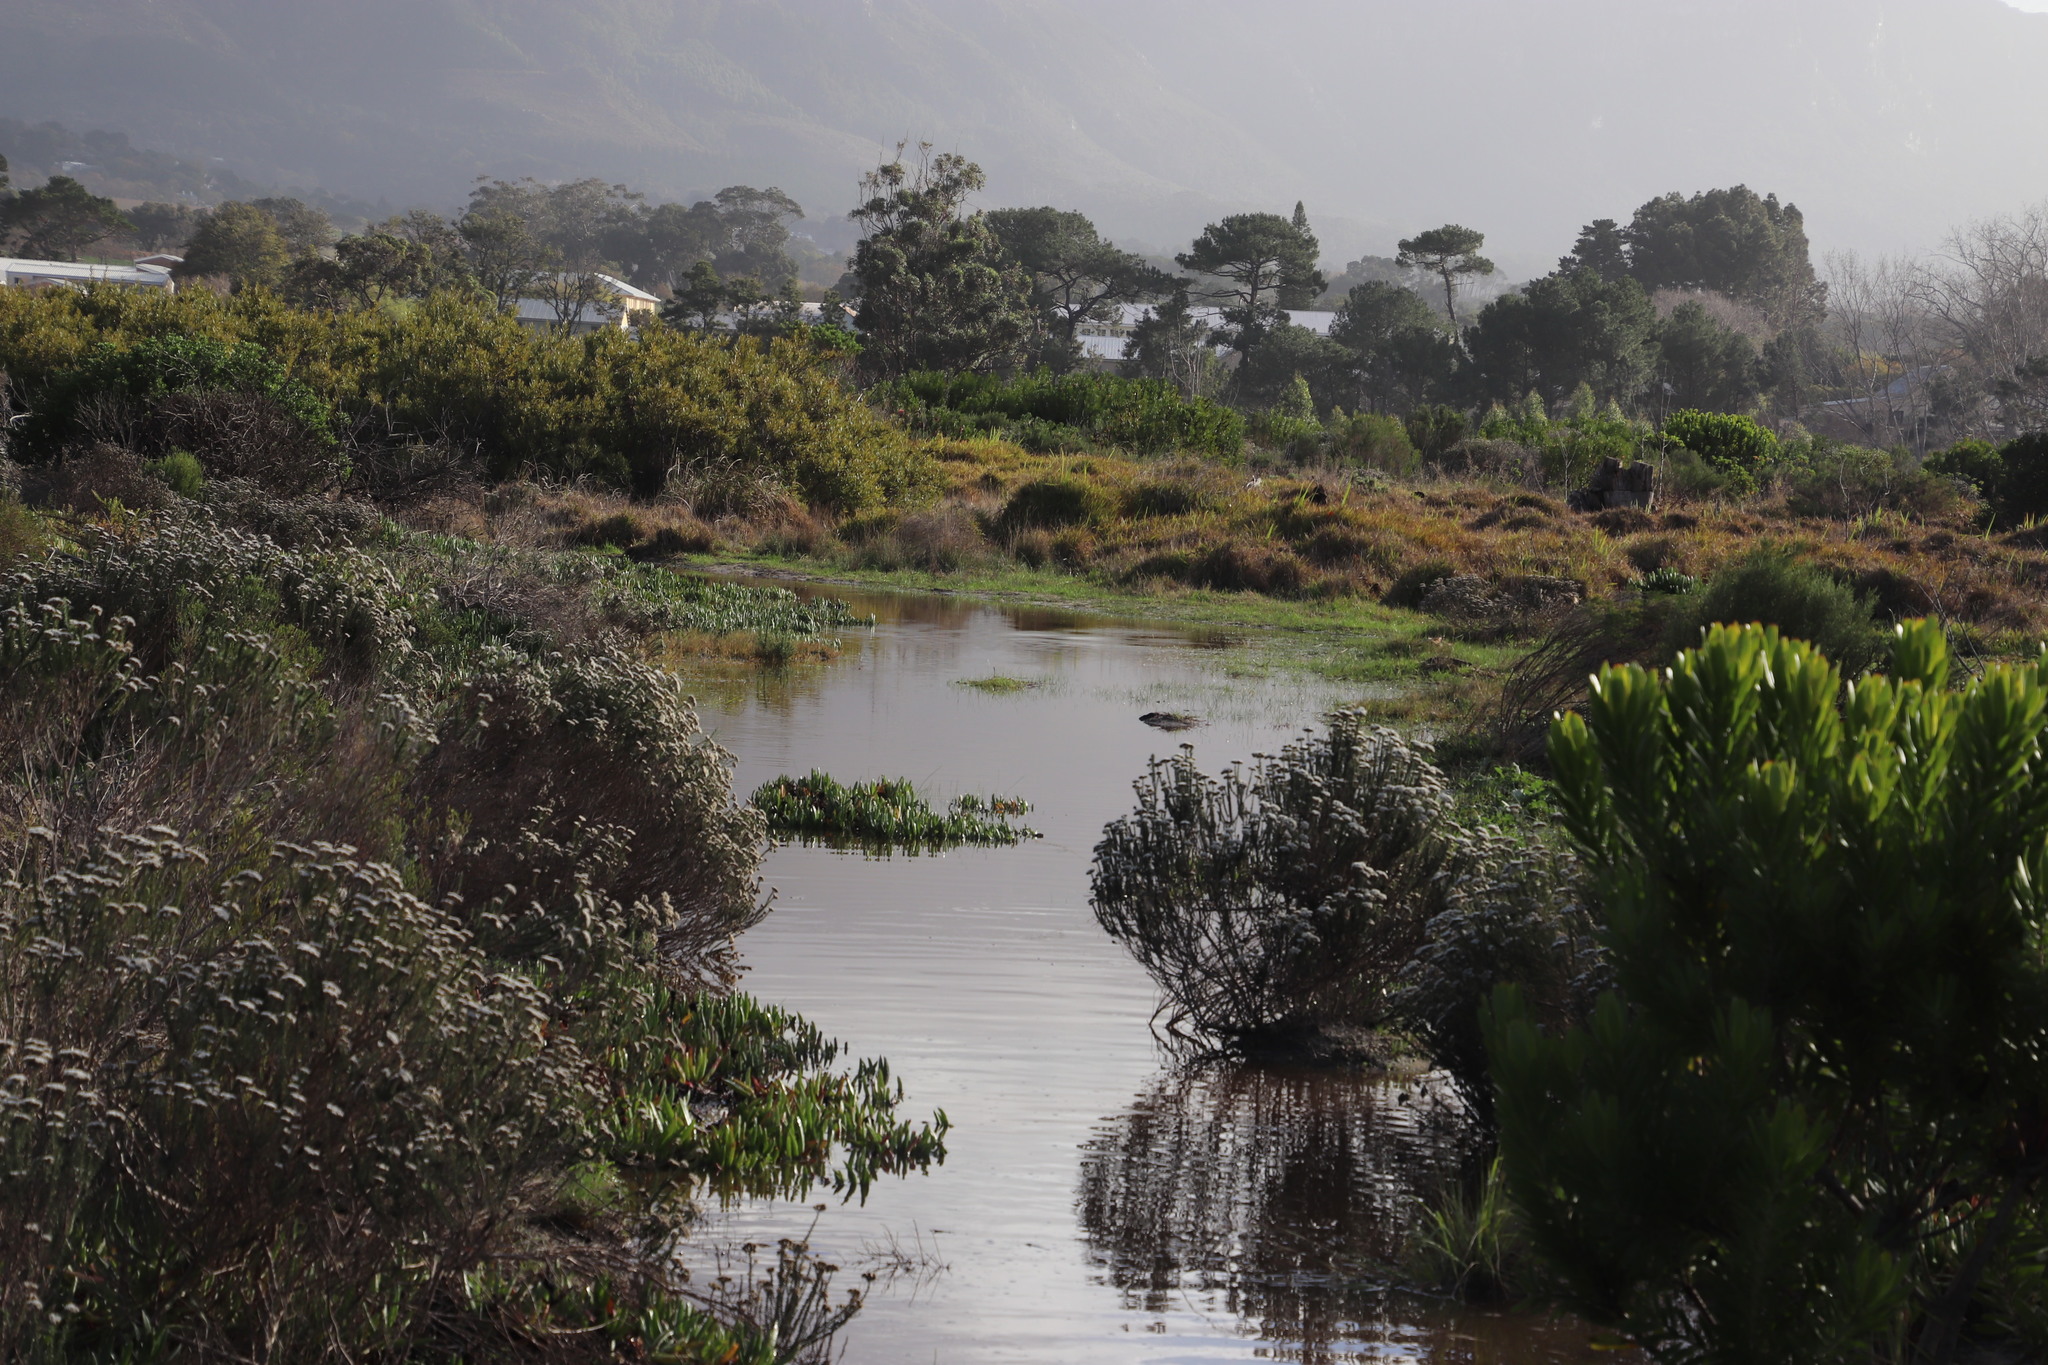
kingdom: Plantae
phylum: Tracheophyta
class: Magnoliopsida
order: Asterales
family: Asteraceae
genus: Metalasia
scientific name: Metalasia densa
